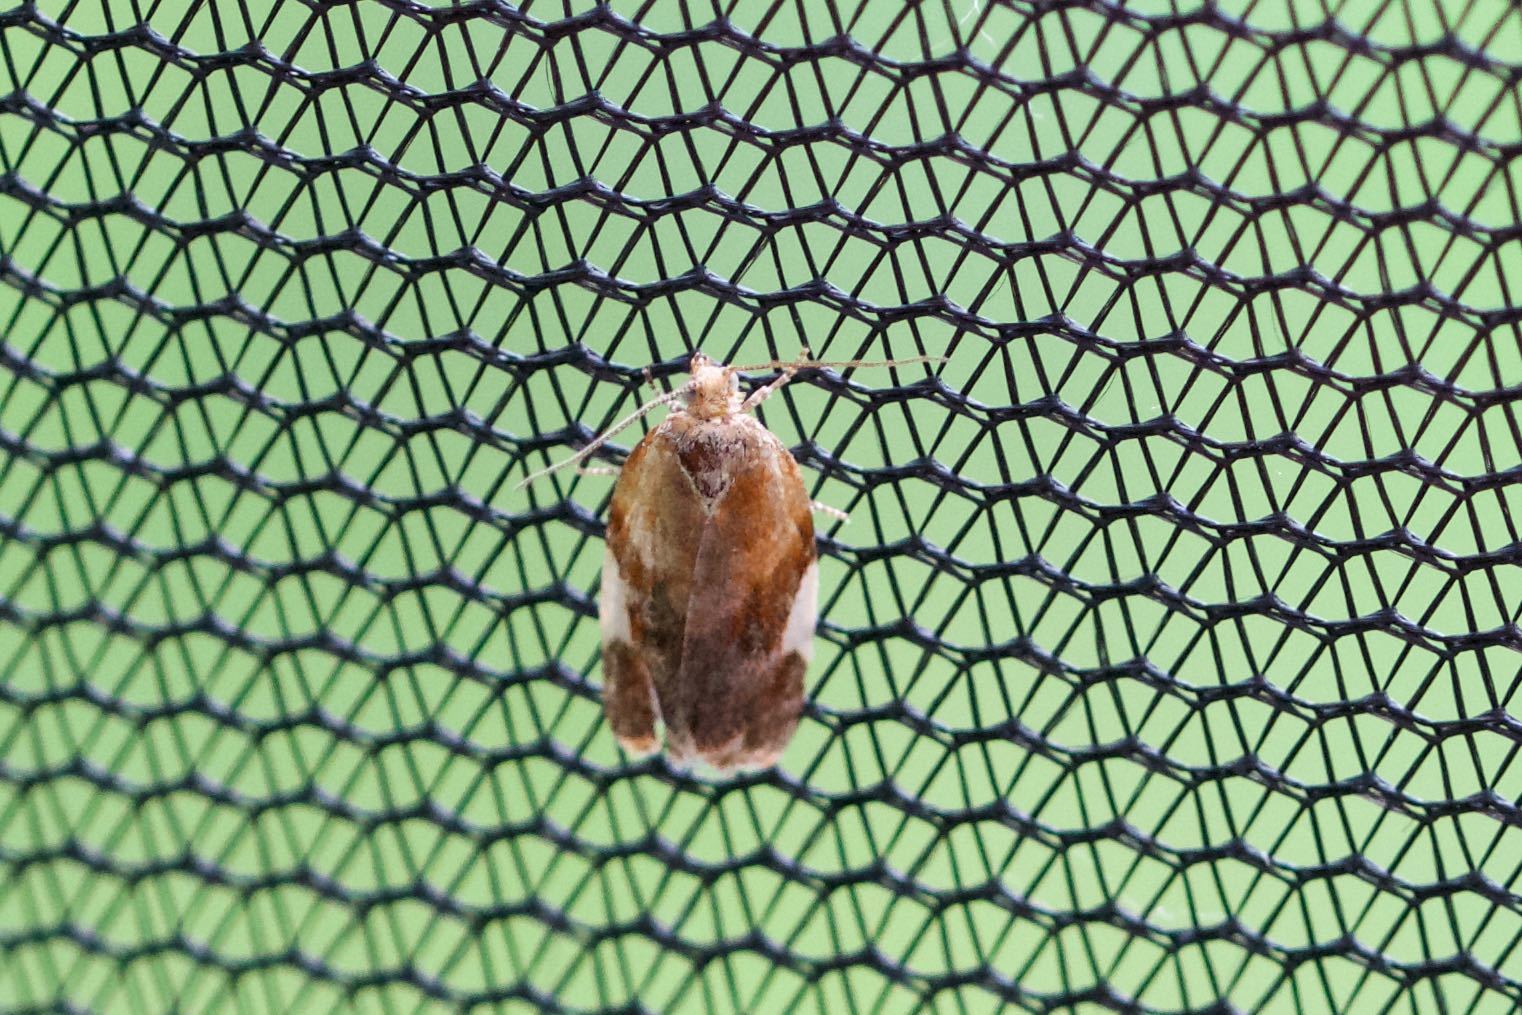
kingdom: Animalia
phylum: Arthropoda
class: Insecta
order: Lepidoptera
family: Tortricidae
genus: Clepsis
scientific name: Clepsis persicana
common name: White triangle tortrix
